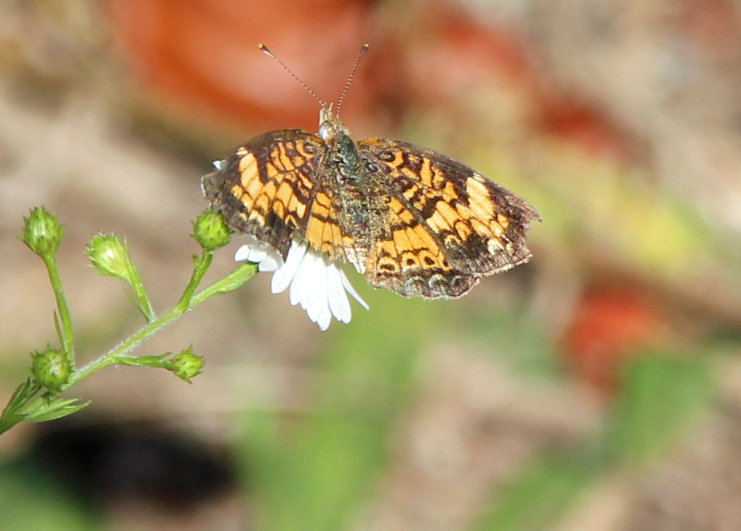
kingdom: Animalia
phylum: Arthropoda
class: Insecta
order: Lepidoptera
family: Nymphalidae
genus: Phyciodes
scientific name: Phyciodes tharos
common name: Pearl crescent
